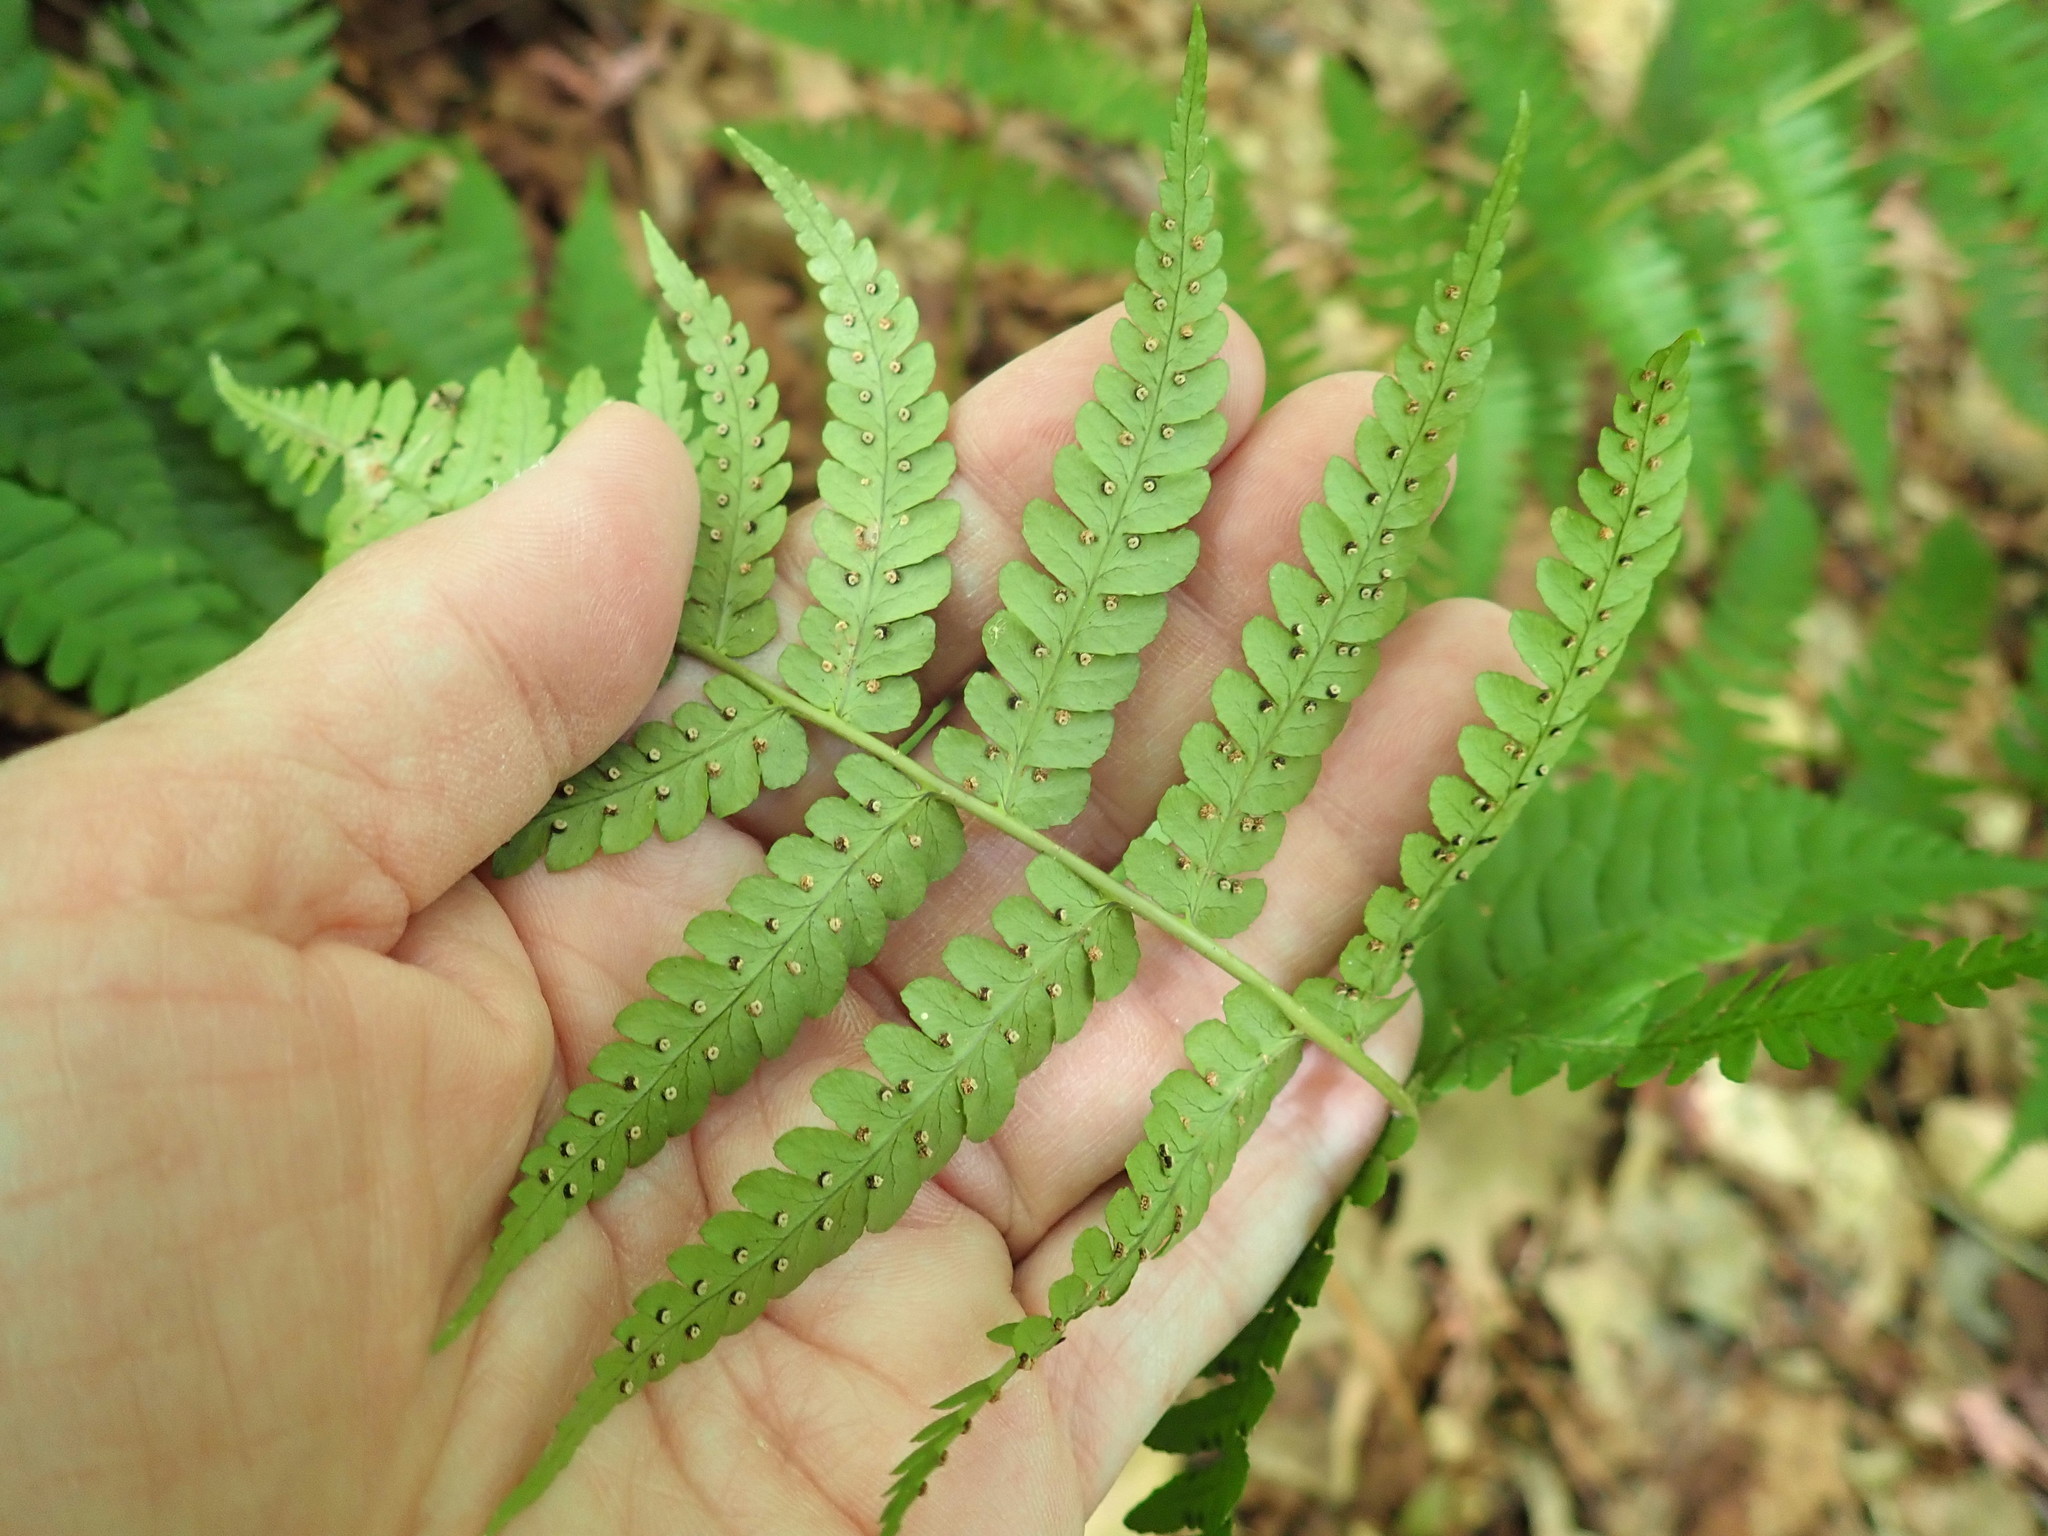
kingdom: Plantae
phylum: Tracheophyta
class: Polypodiopsida
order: Polypodiales
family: Dryopteridaceae
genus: Dryopteris
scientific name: Dryopteris marginalis
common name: Marginal wood fern
